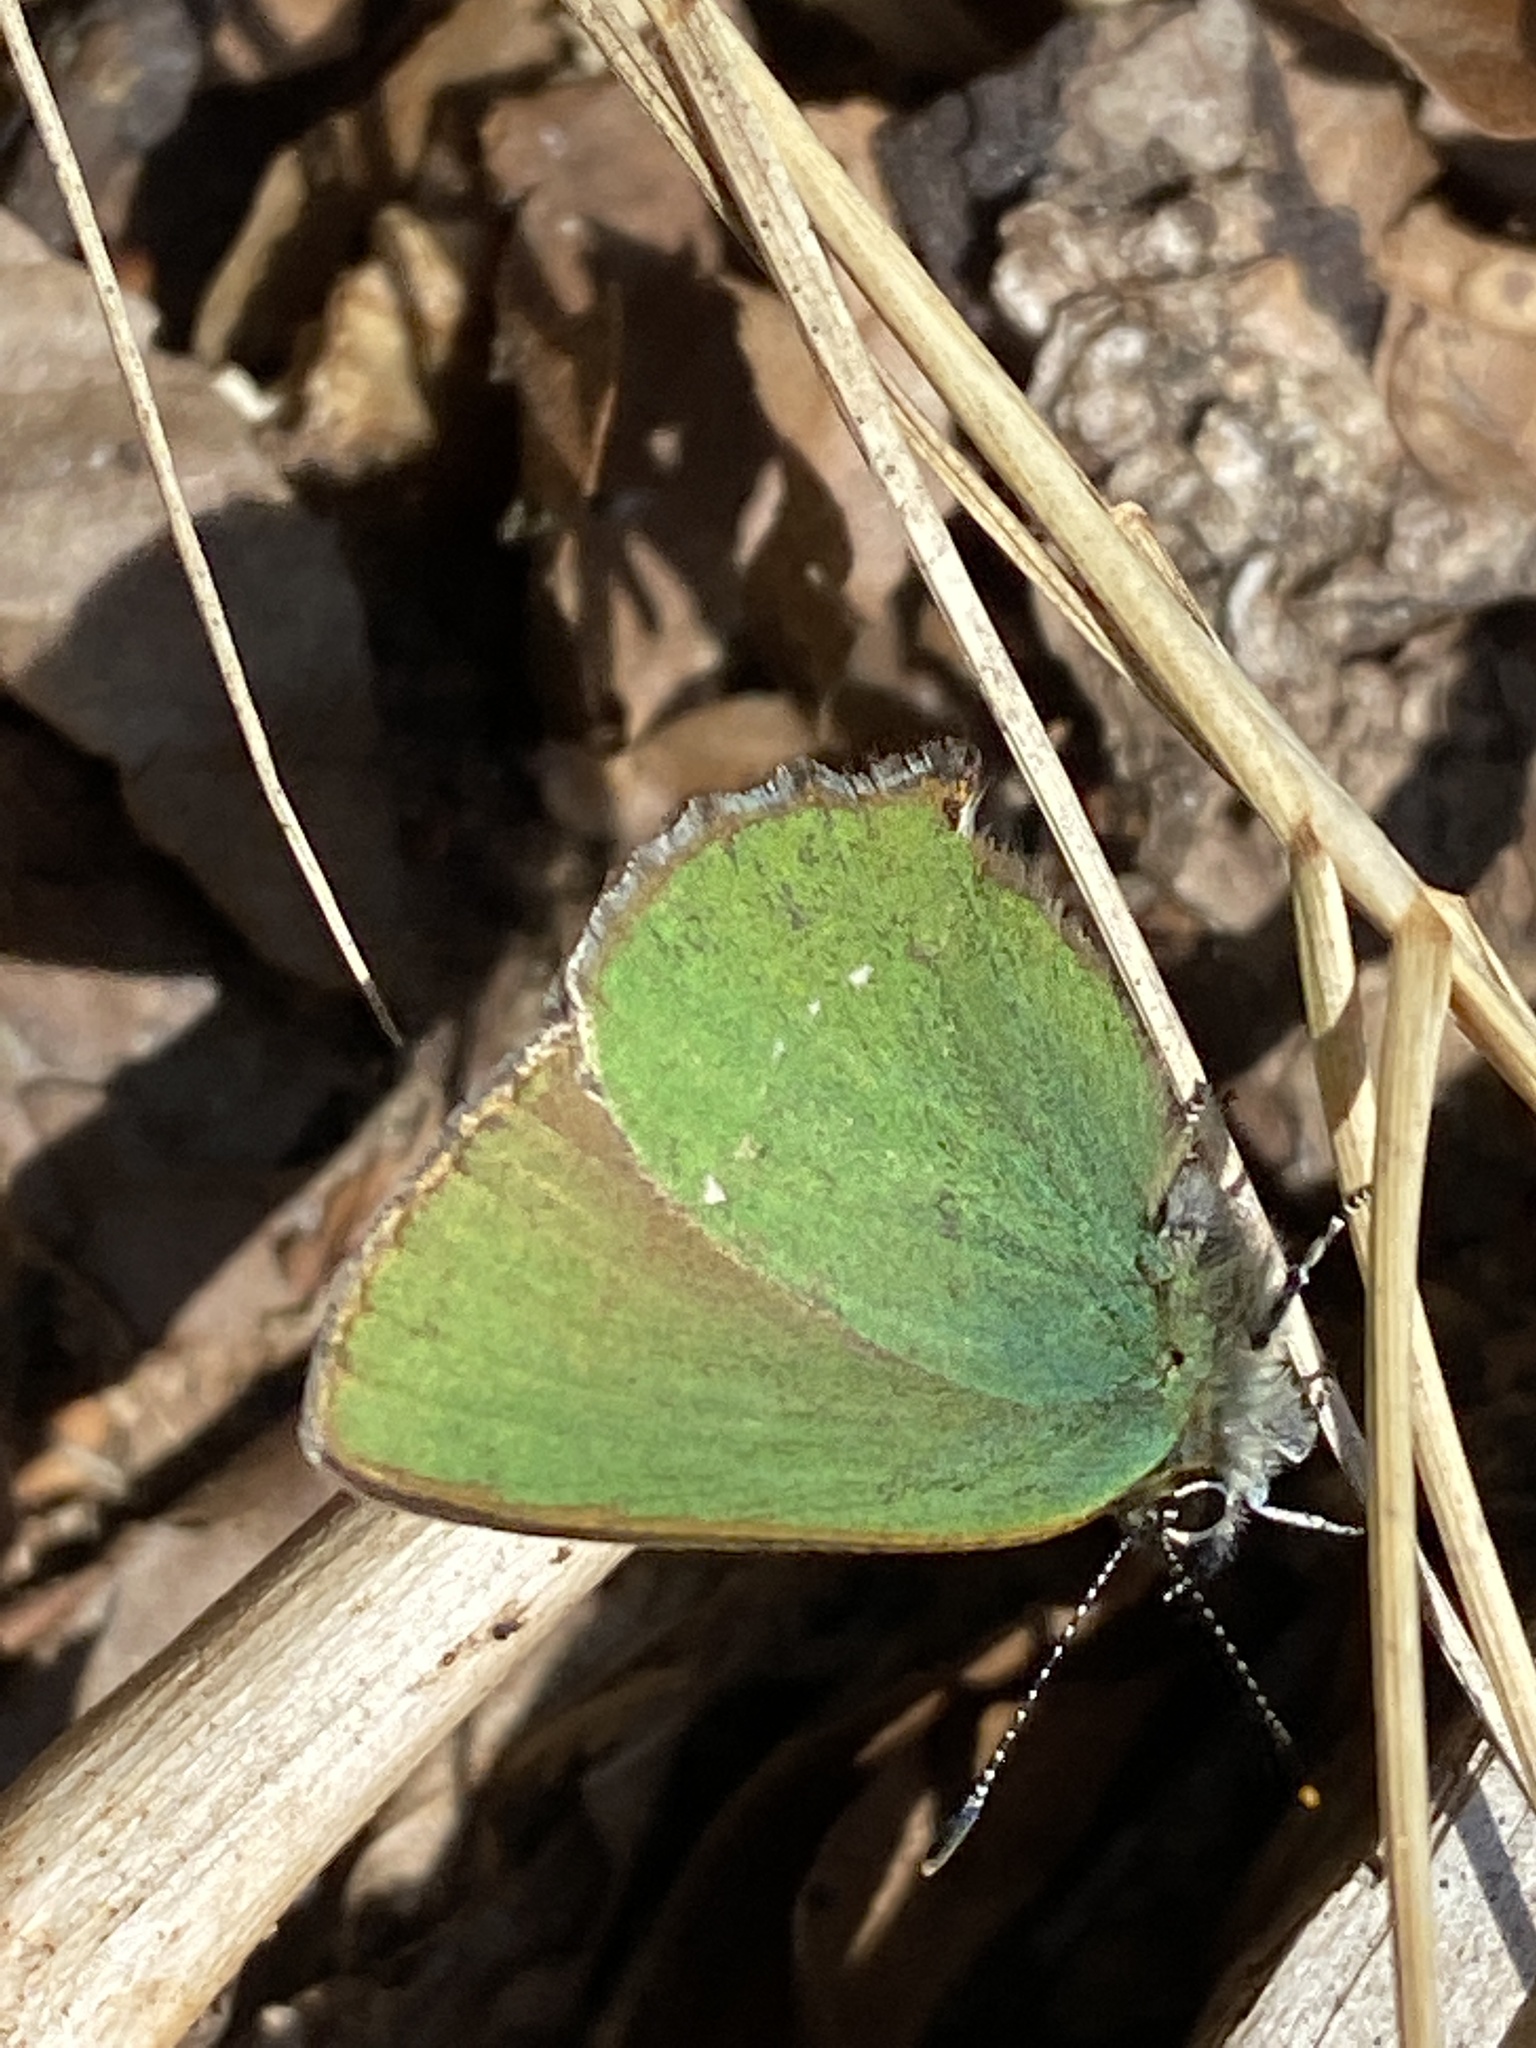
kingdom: Animalia
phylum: Arthropoda
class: Insecta
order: Lepidoptera
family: Lycaenidae
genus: Callophrys
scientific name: Callophrys rubi
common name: Green hairstreak
